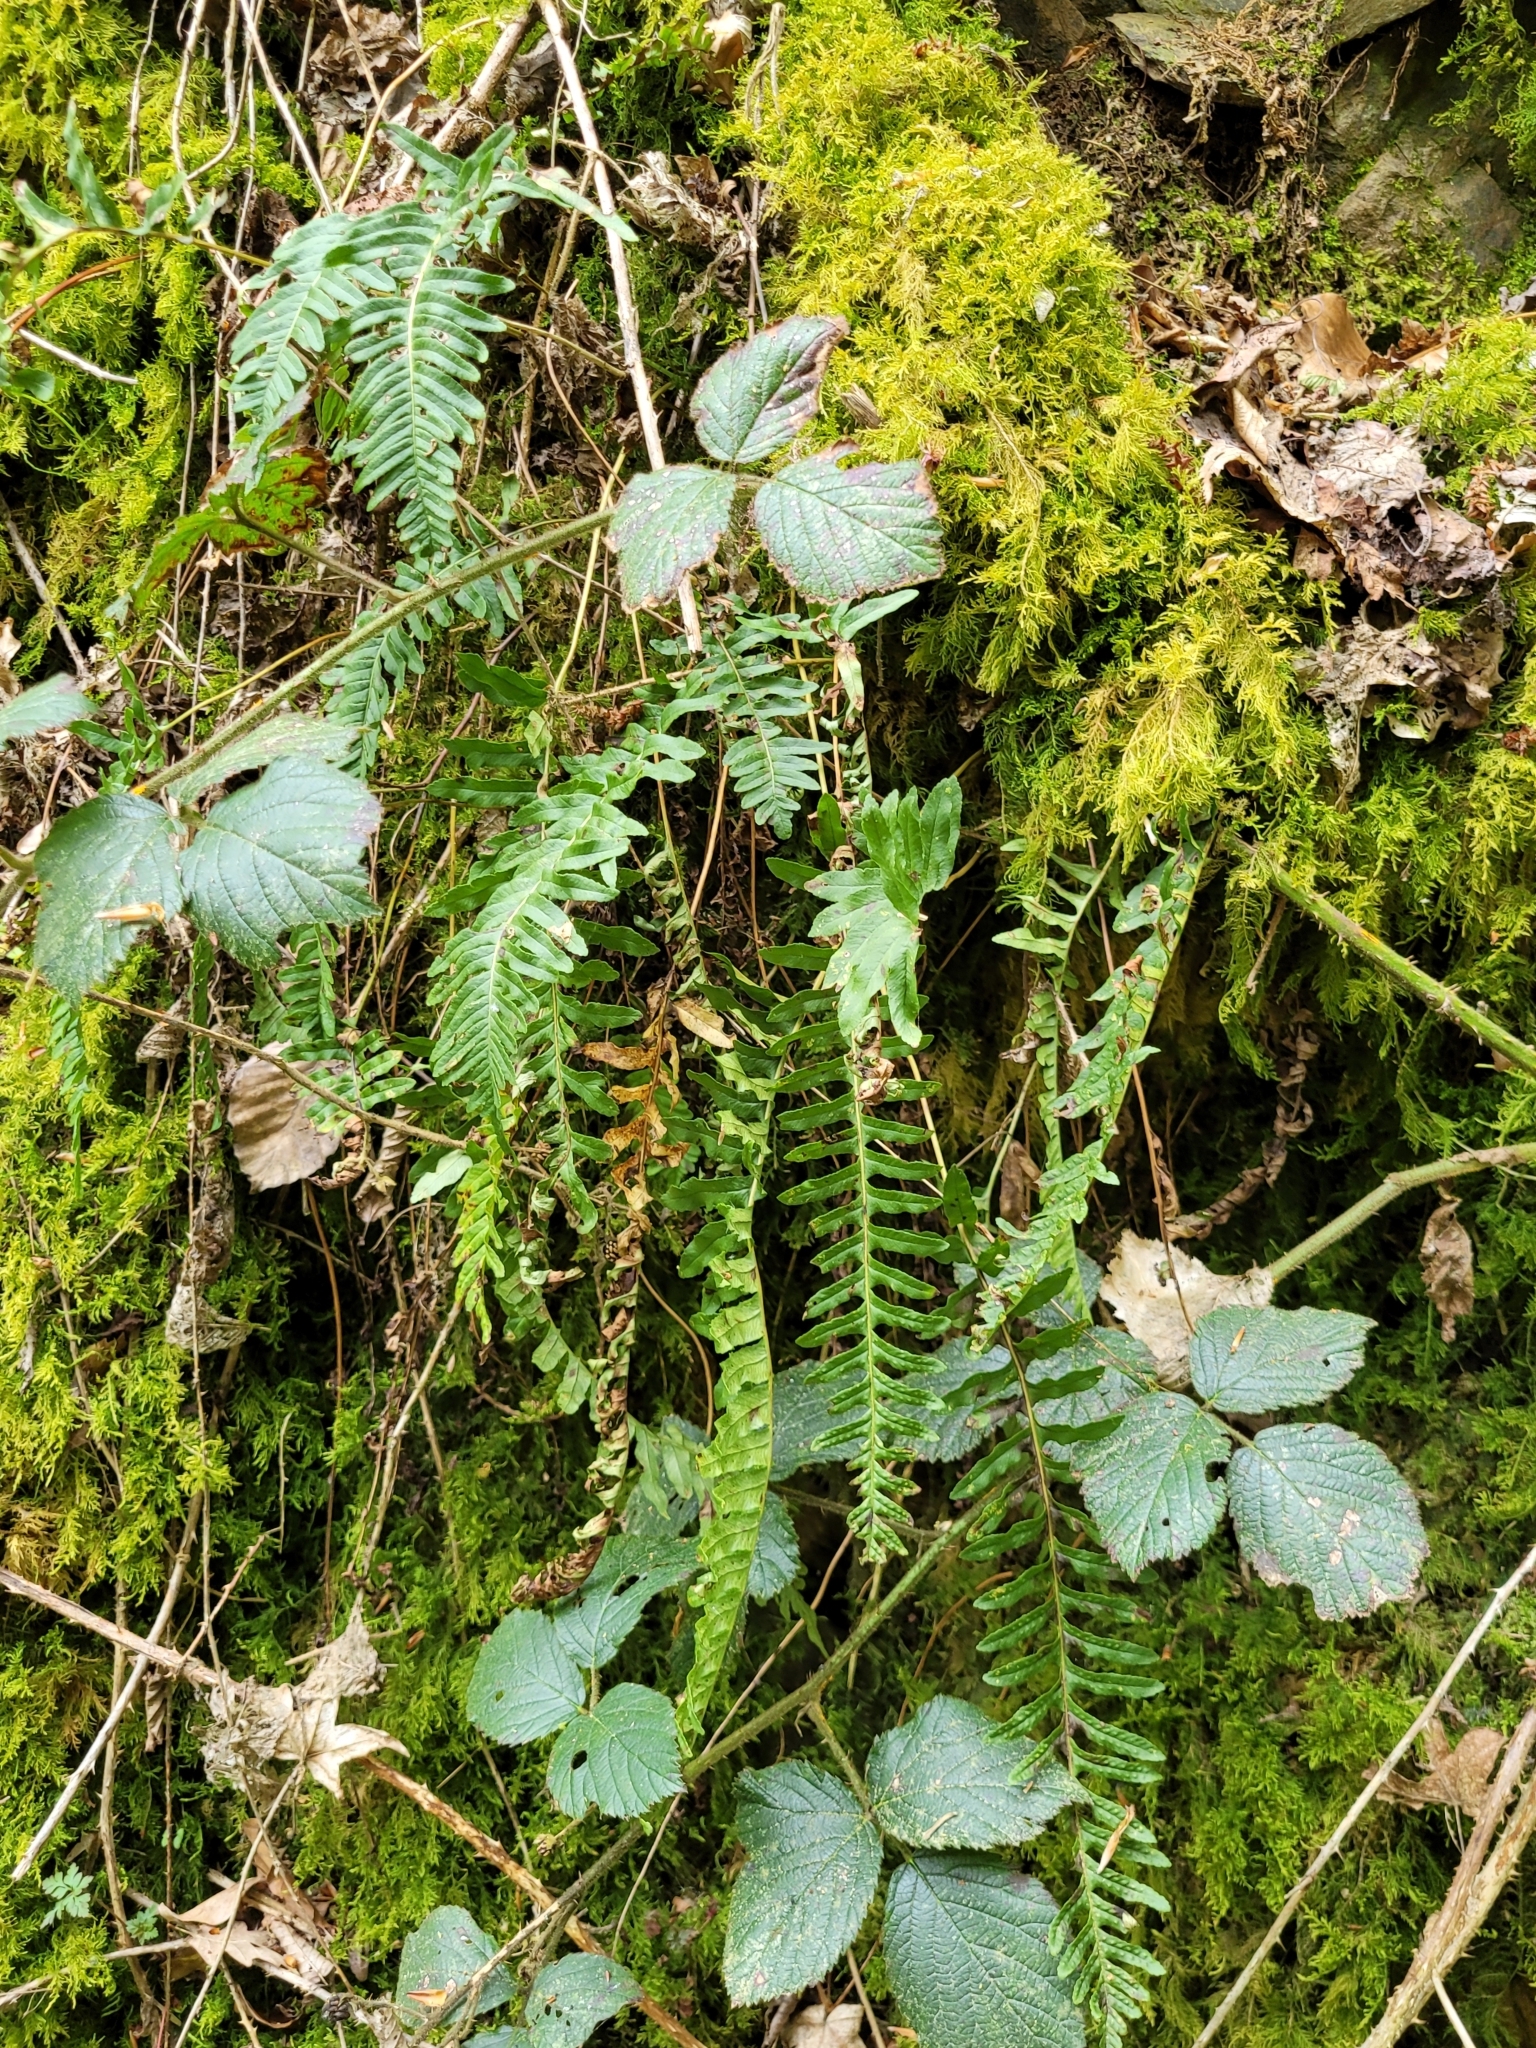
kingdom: Plantae
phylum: Tracheophyta
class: Polypodiopsida
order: Polypodiales
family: Polypodiaceae
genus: Polypodium
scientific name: Polypodium vulgare
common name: Common polypody
